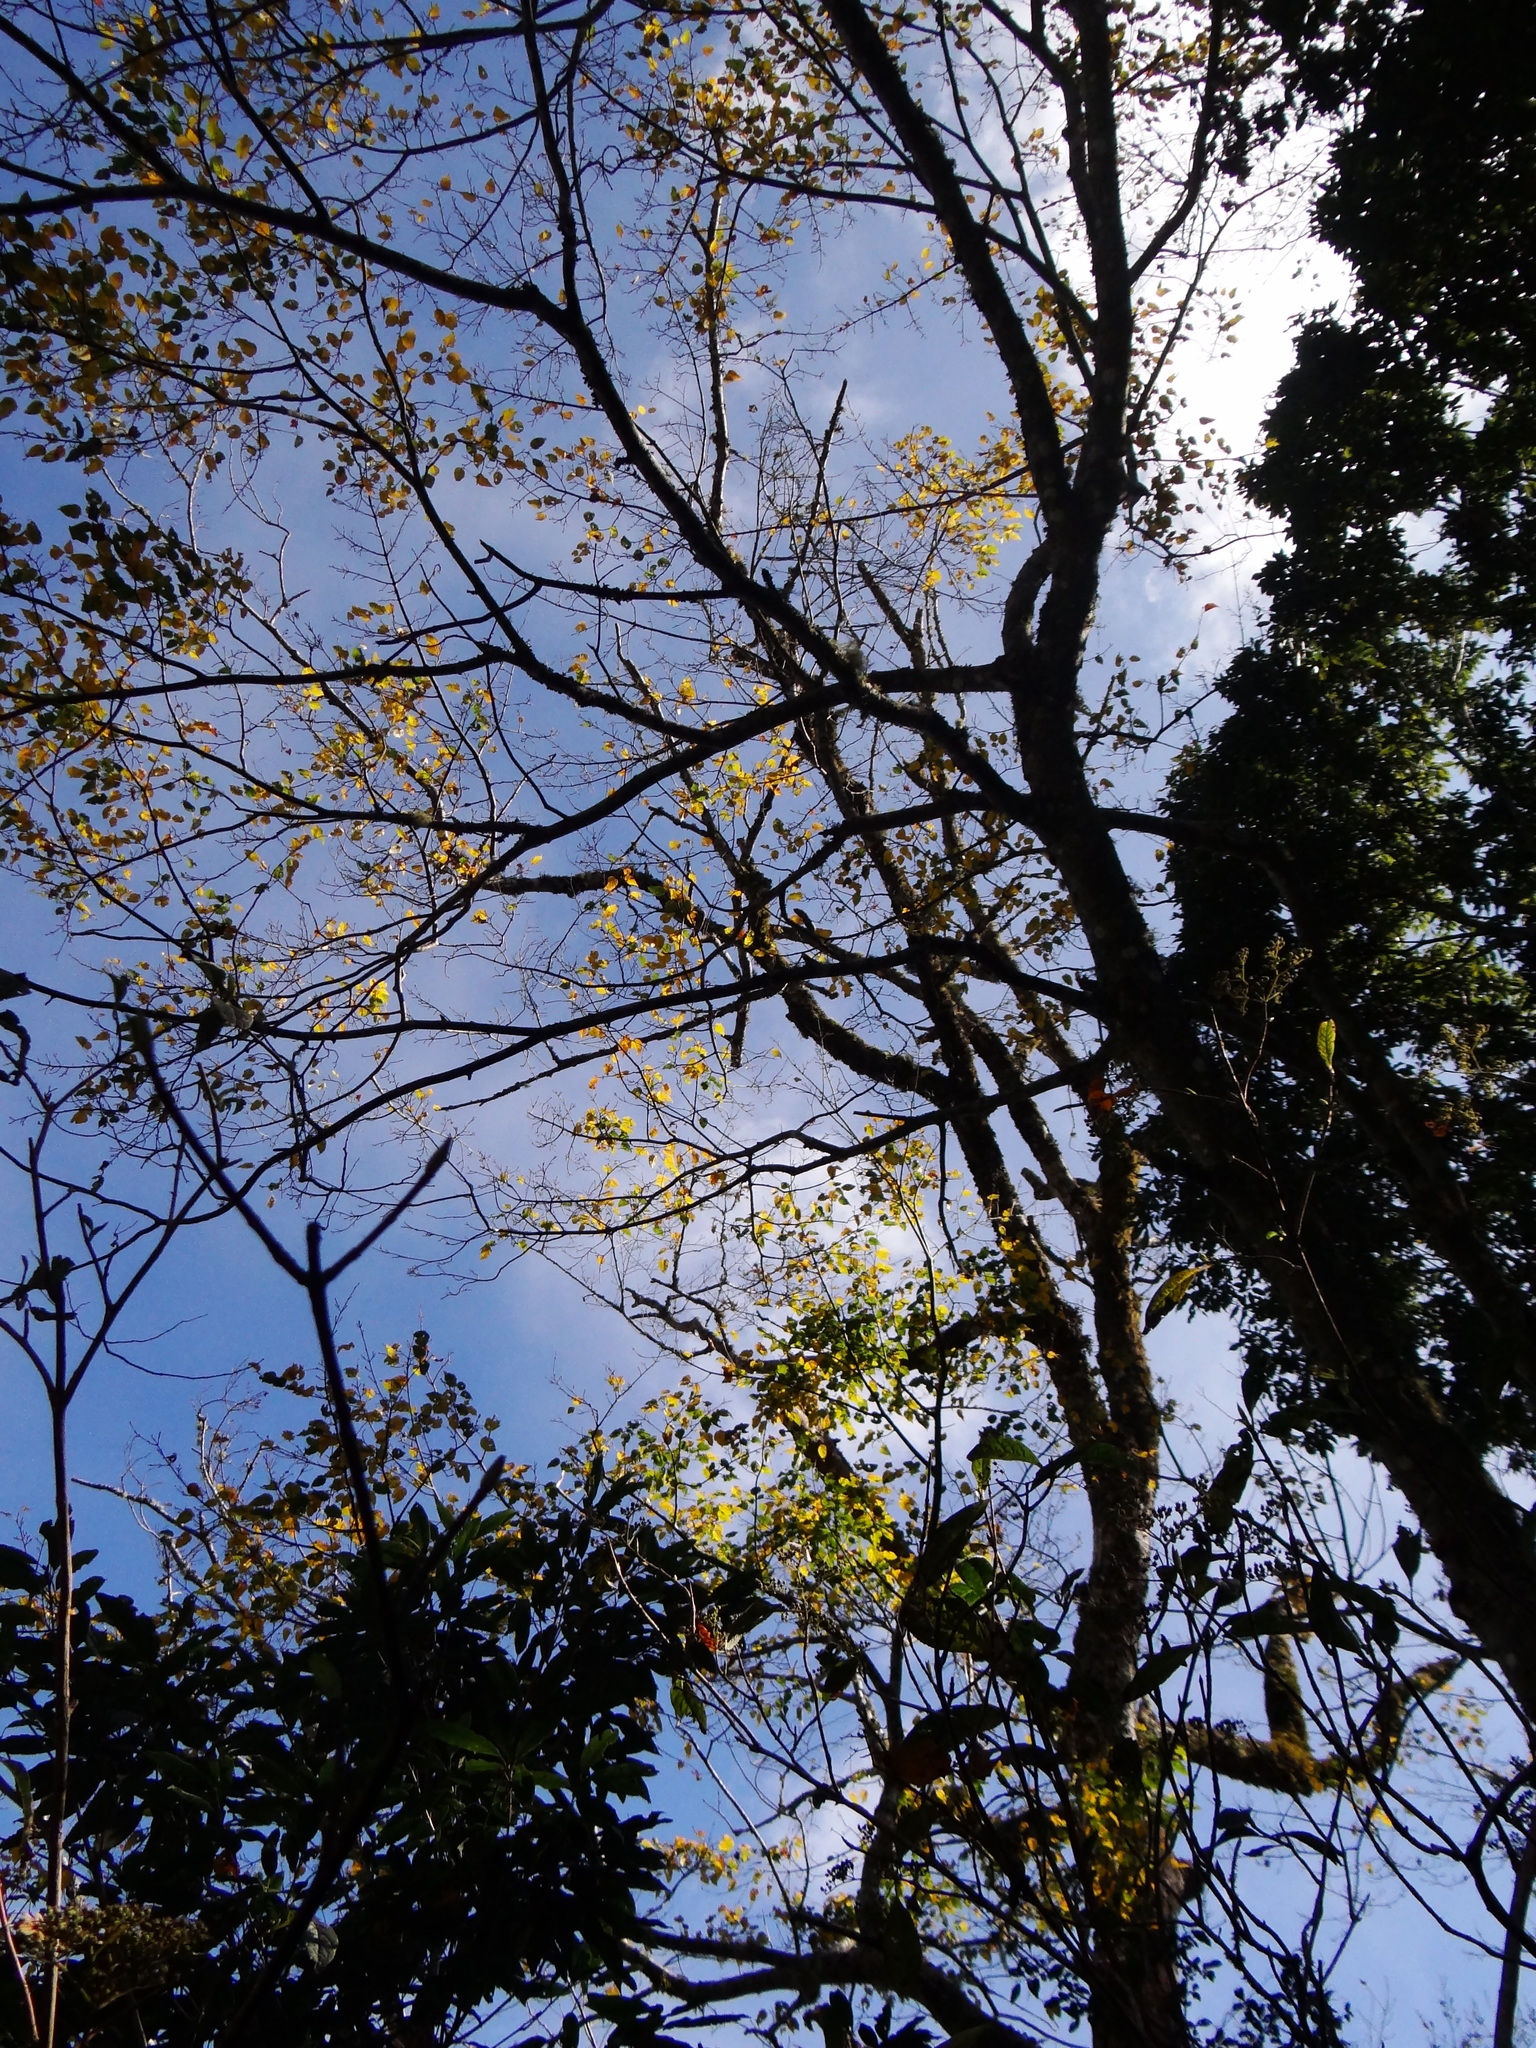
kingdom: Plantae
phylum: Tracheophyta
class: Magnoliopsida
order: Sapindales
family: Sapindaceae
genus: Acer
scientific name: Acer caudatifolium
